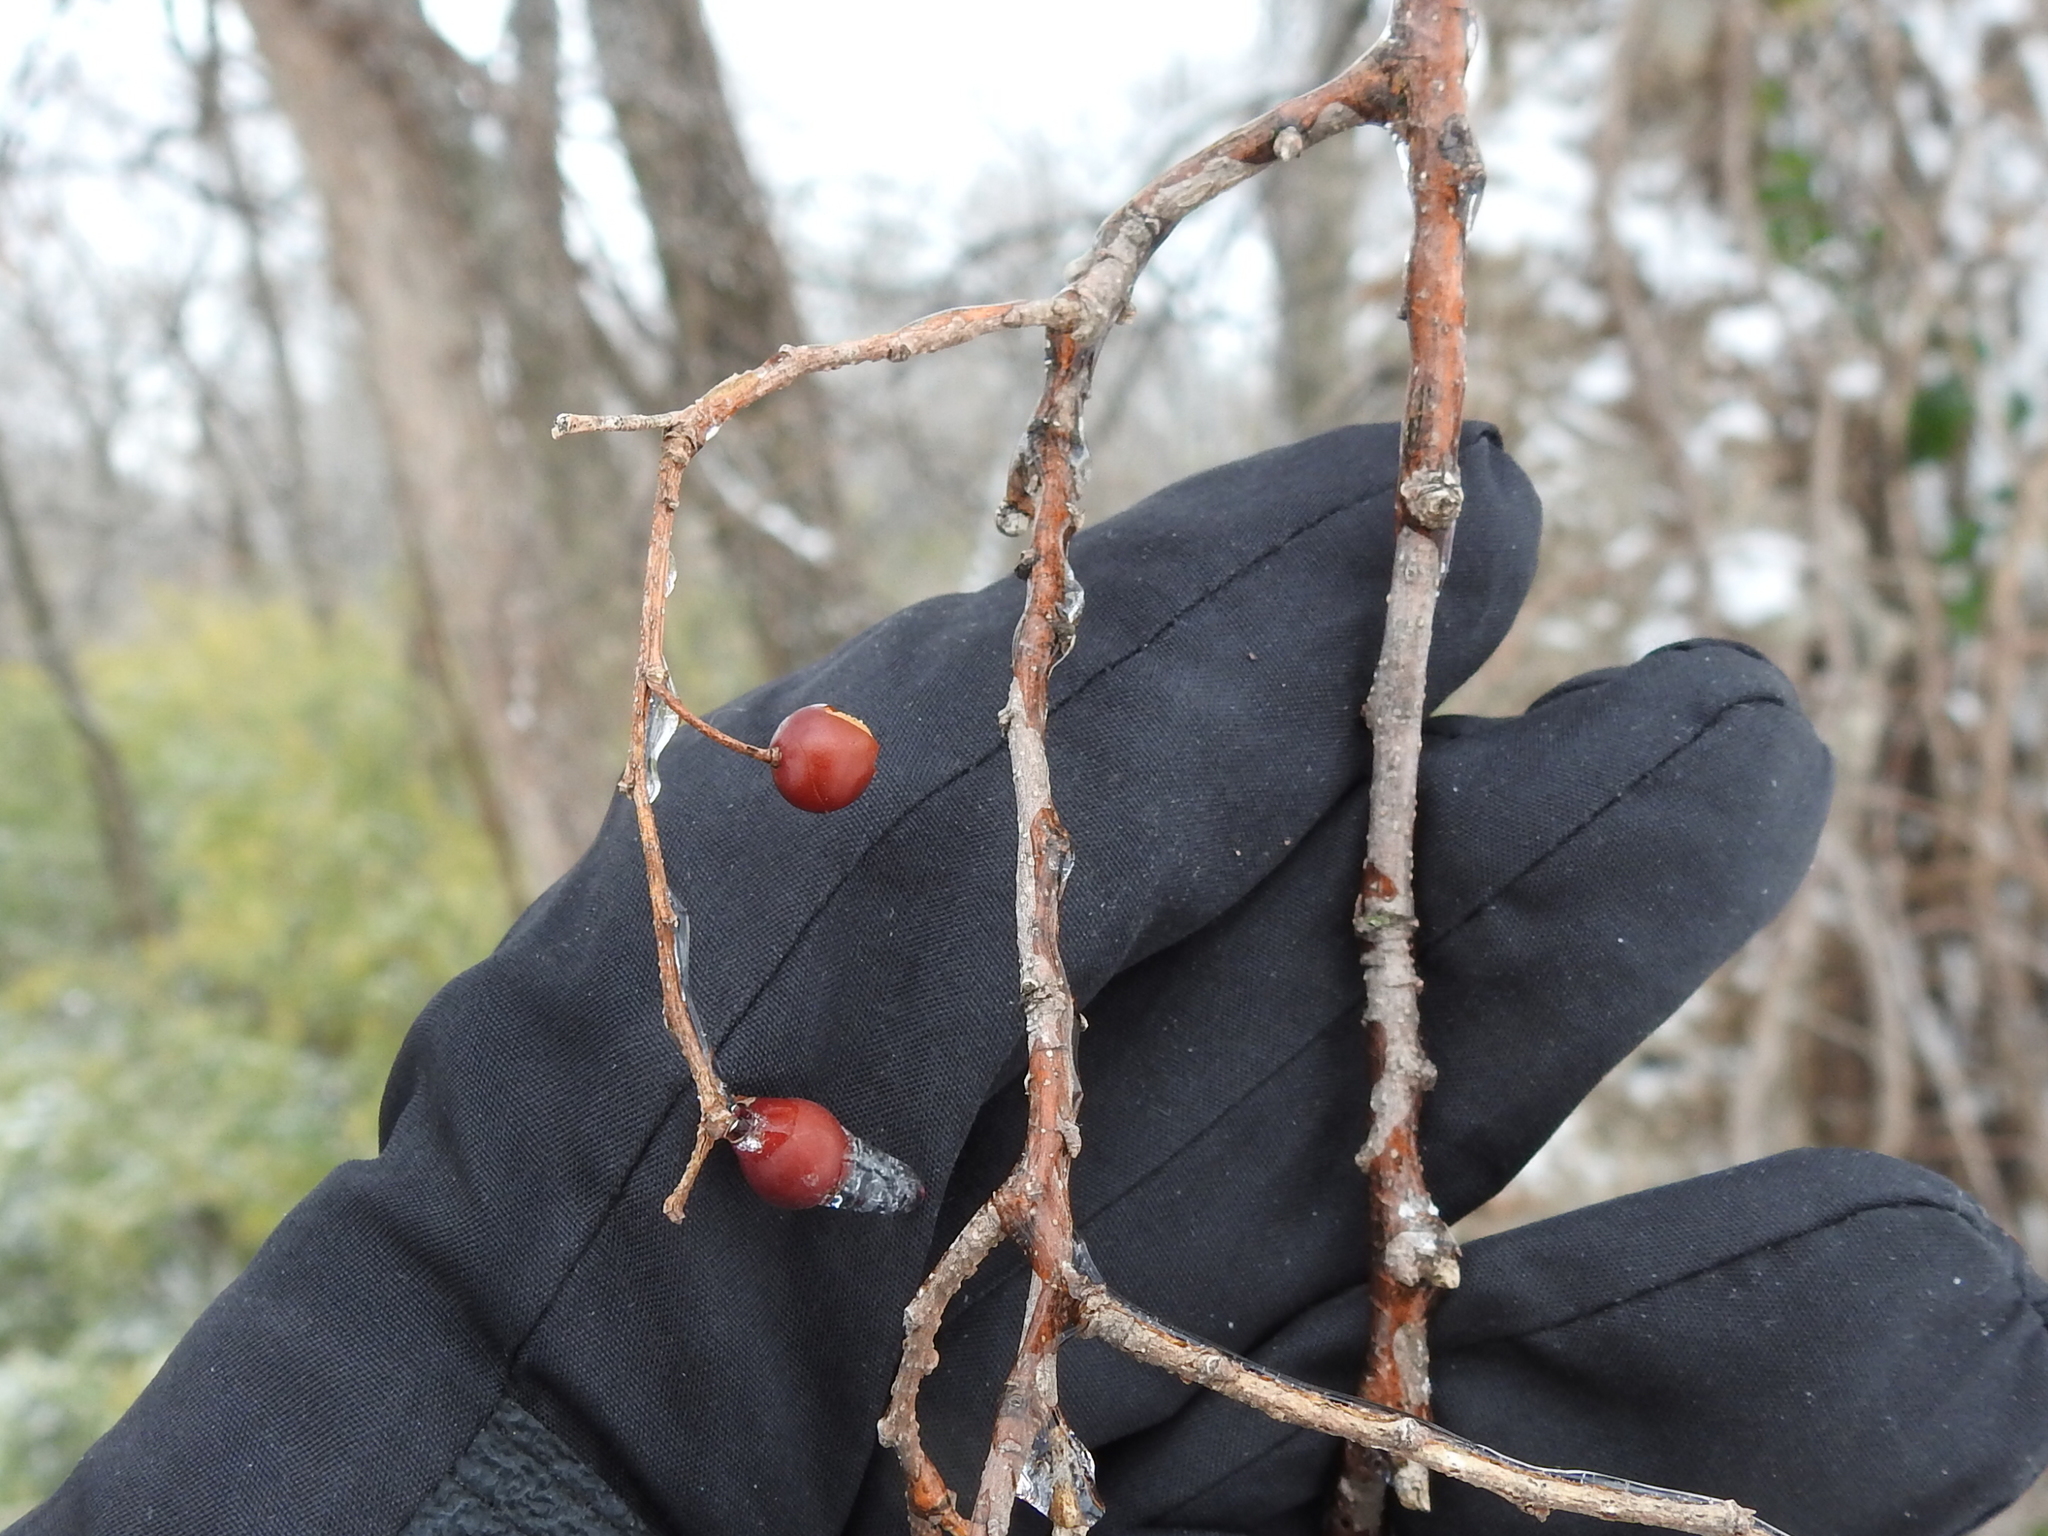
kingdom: Plantae
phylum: Tracheophyta
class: Magnoliopsida
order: Rosales
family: Cannabaceae
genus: Celtis
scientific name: Celtis laevigata
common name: Sugarberry
